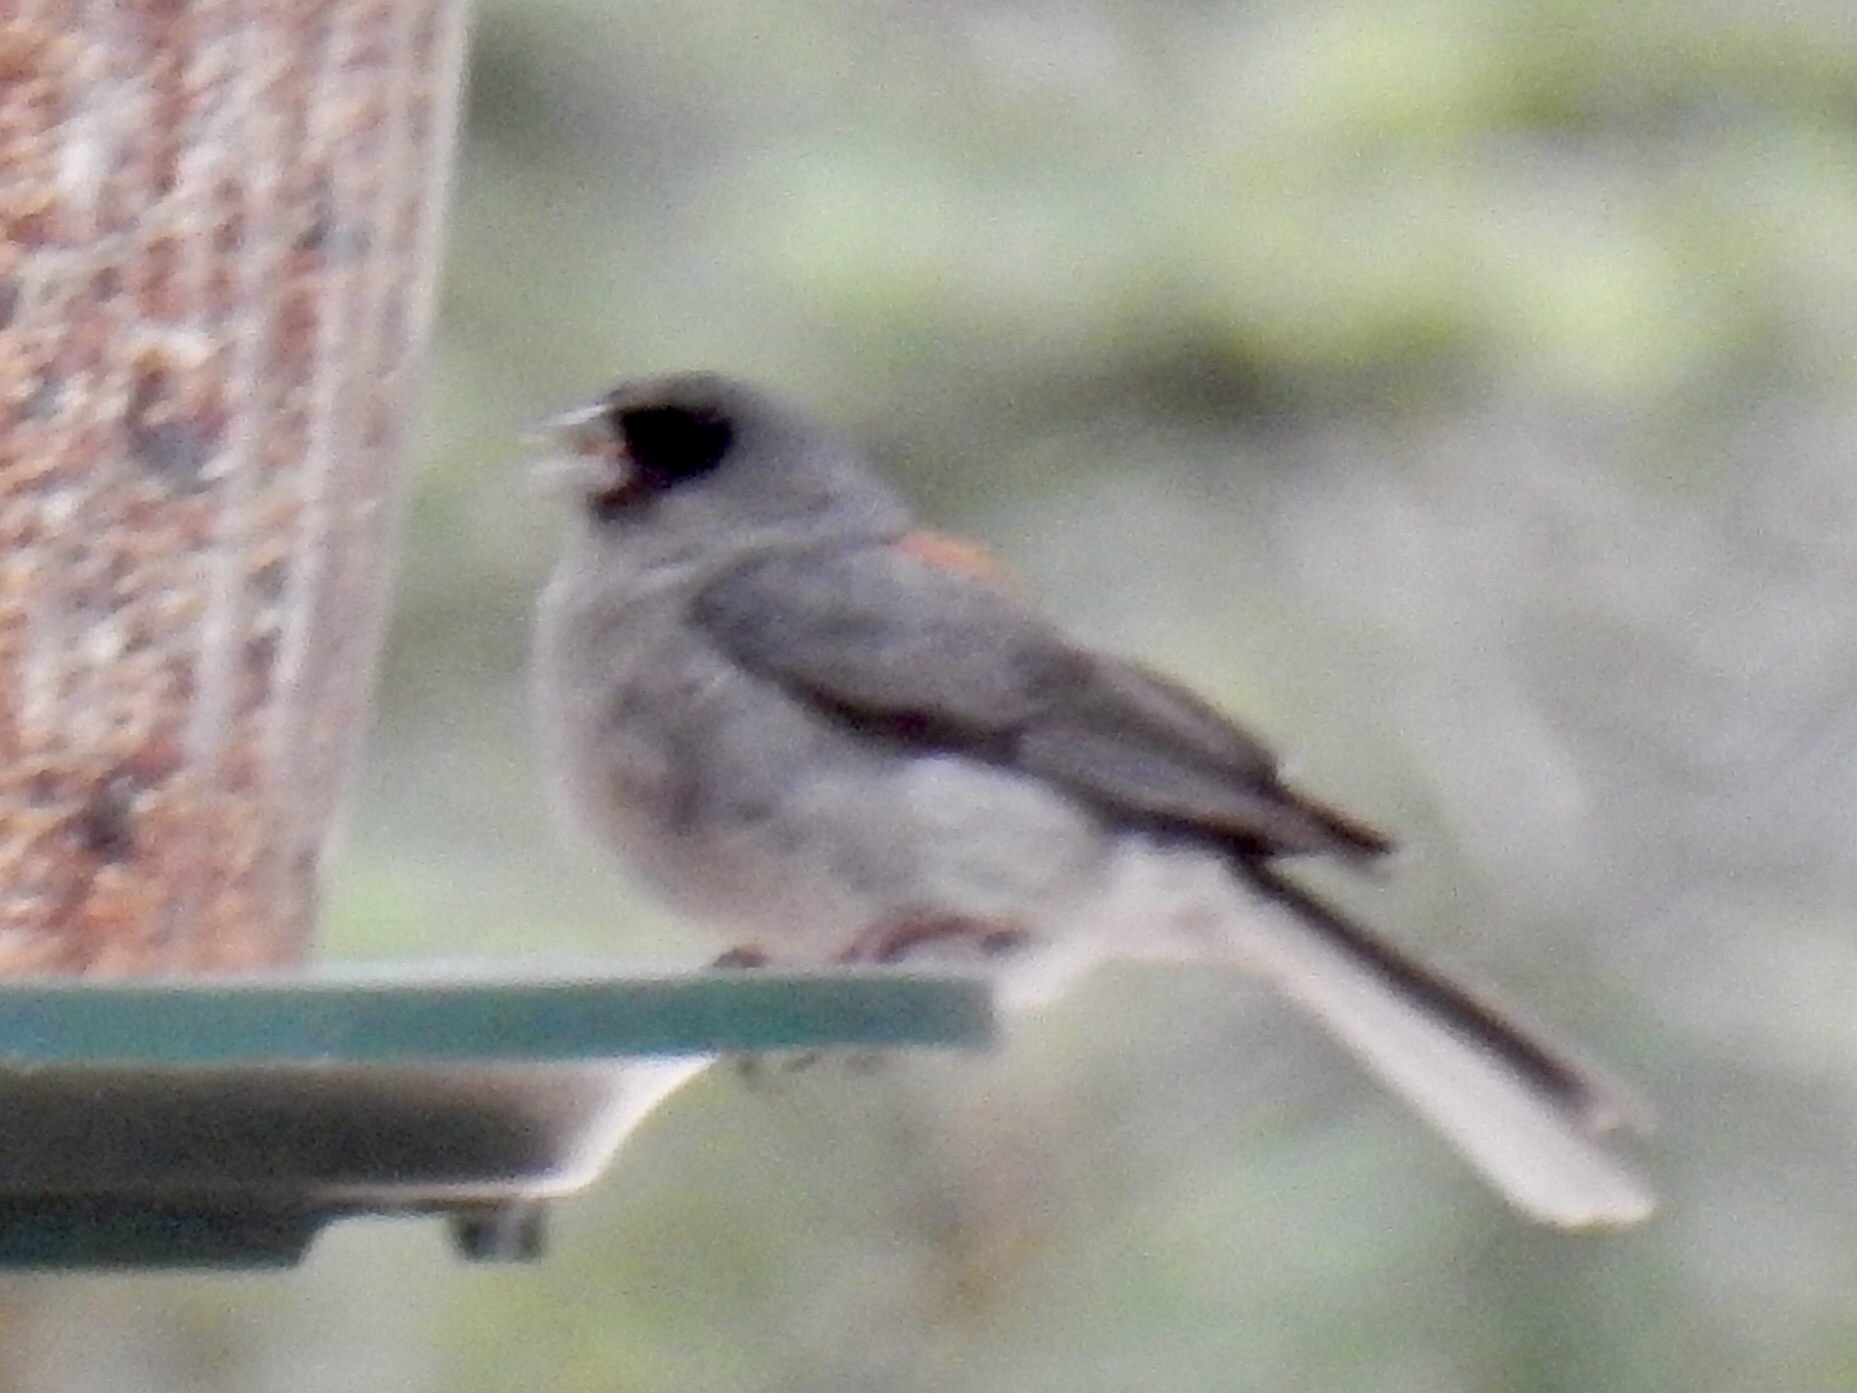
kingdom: Animalia
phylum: Chordata
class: Aves
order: Passeriformes
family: Passerellidae
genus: Junco
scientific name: Junco hyemalis
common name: Dark-eyed junco
